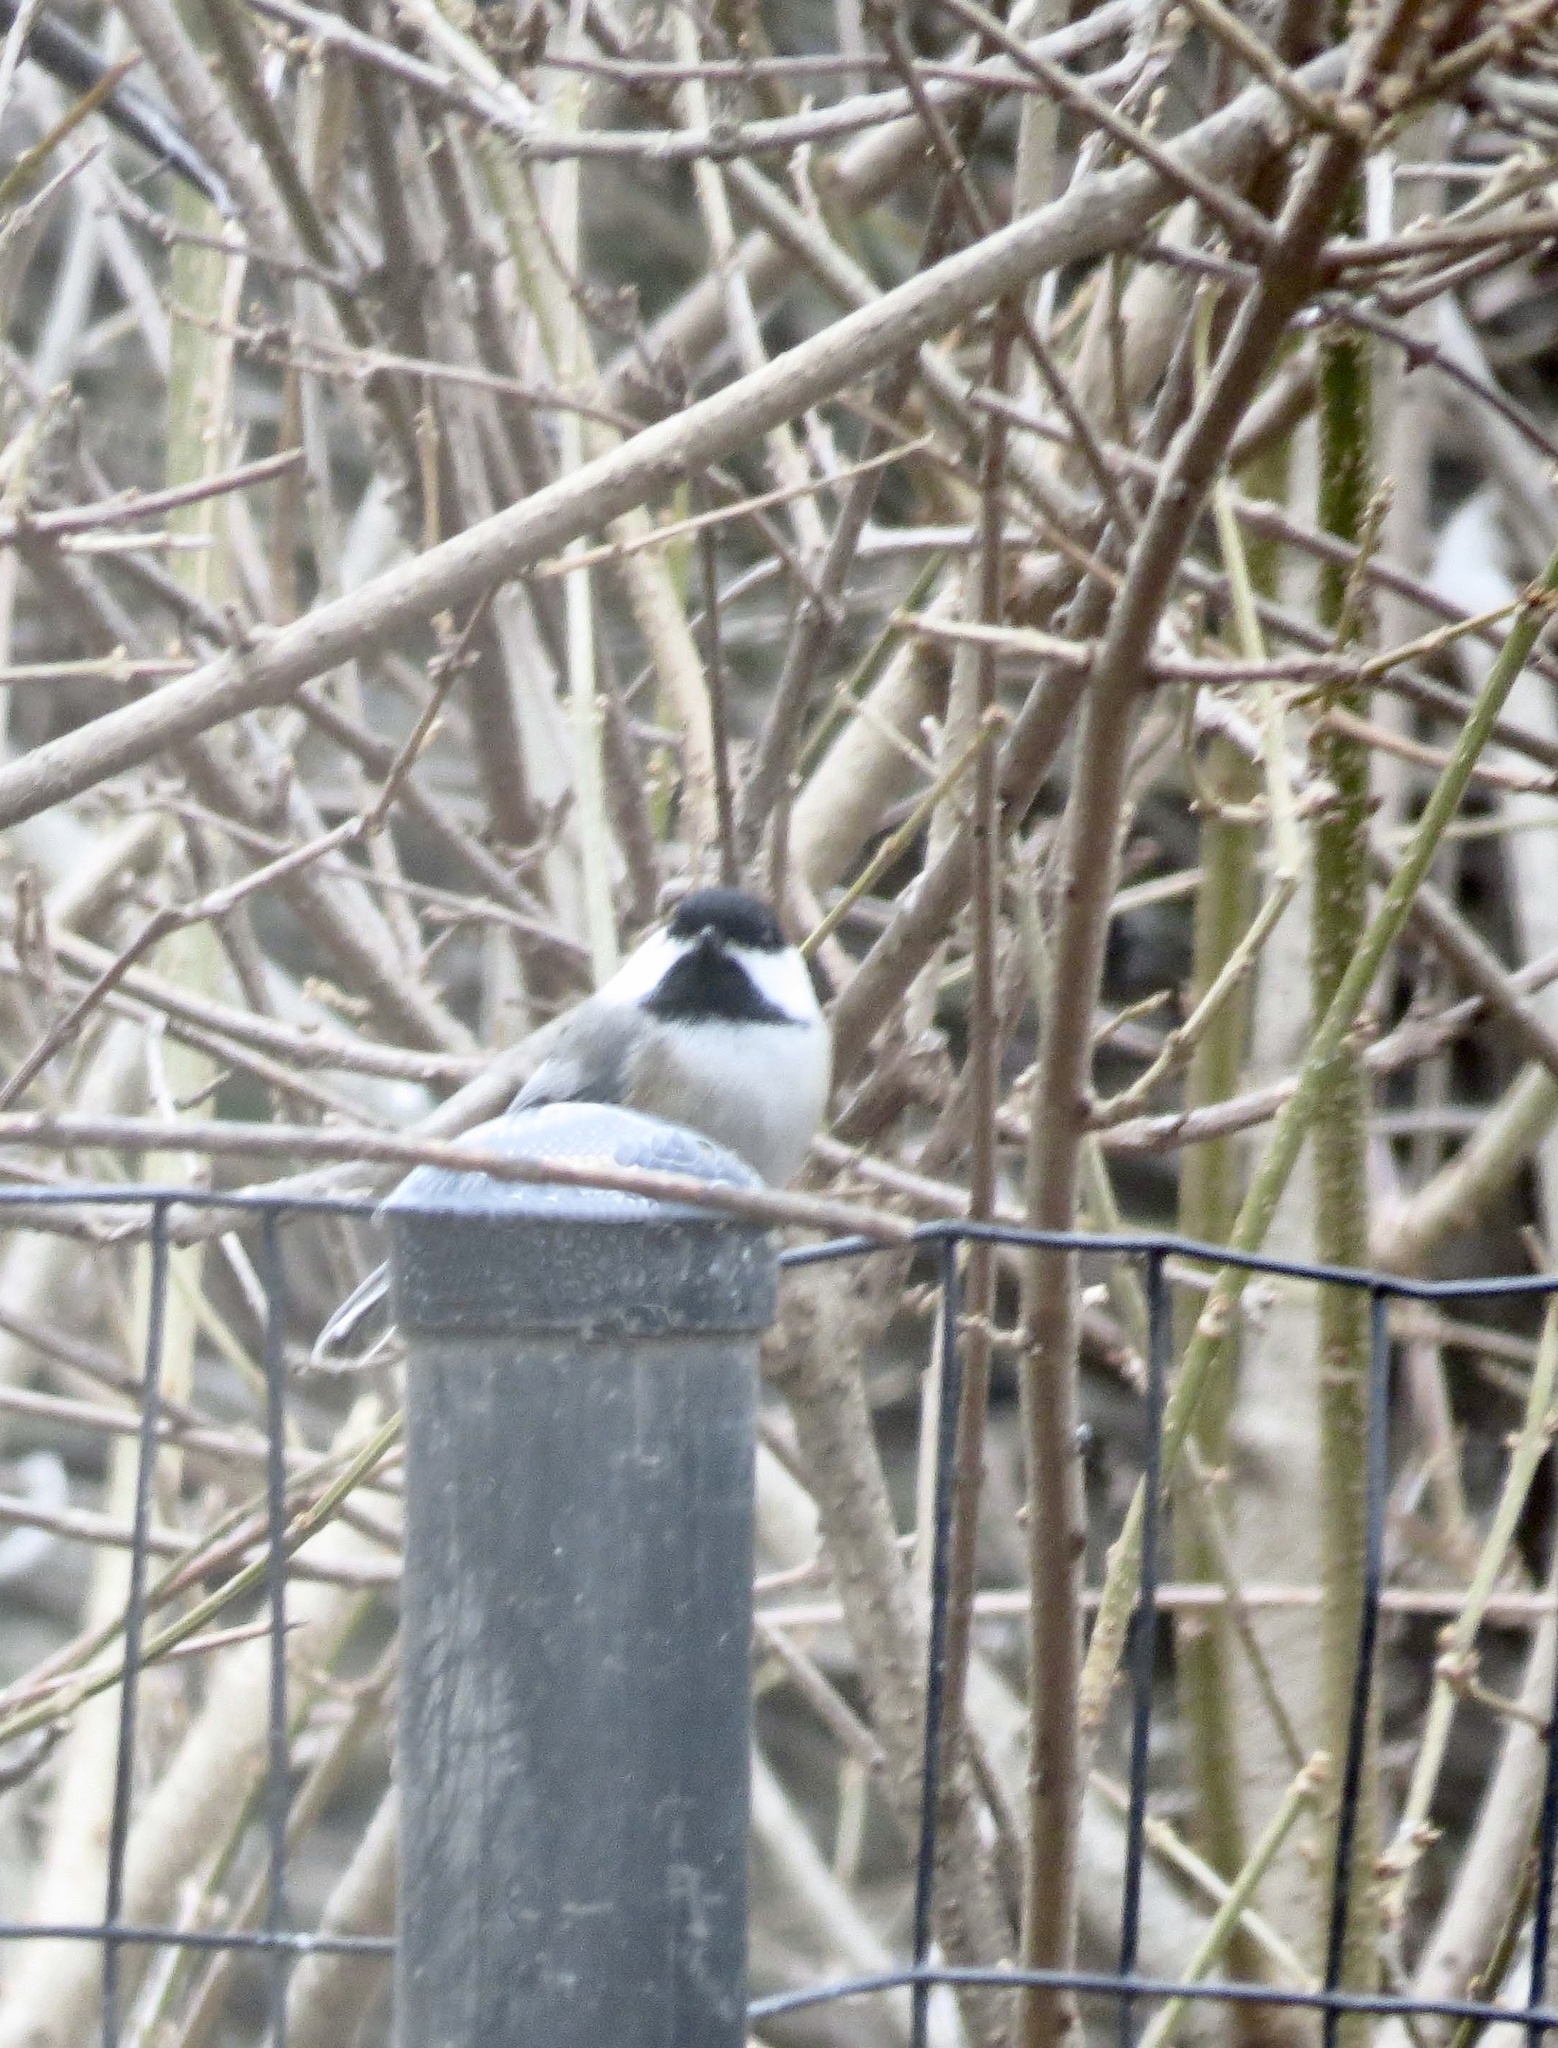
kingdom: Animalia
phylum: Chordata
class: Aves
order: Passeriformes
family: Paridae
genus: Poecile
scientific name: Poecile atricapillus
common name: Black-capped chickadee
